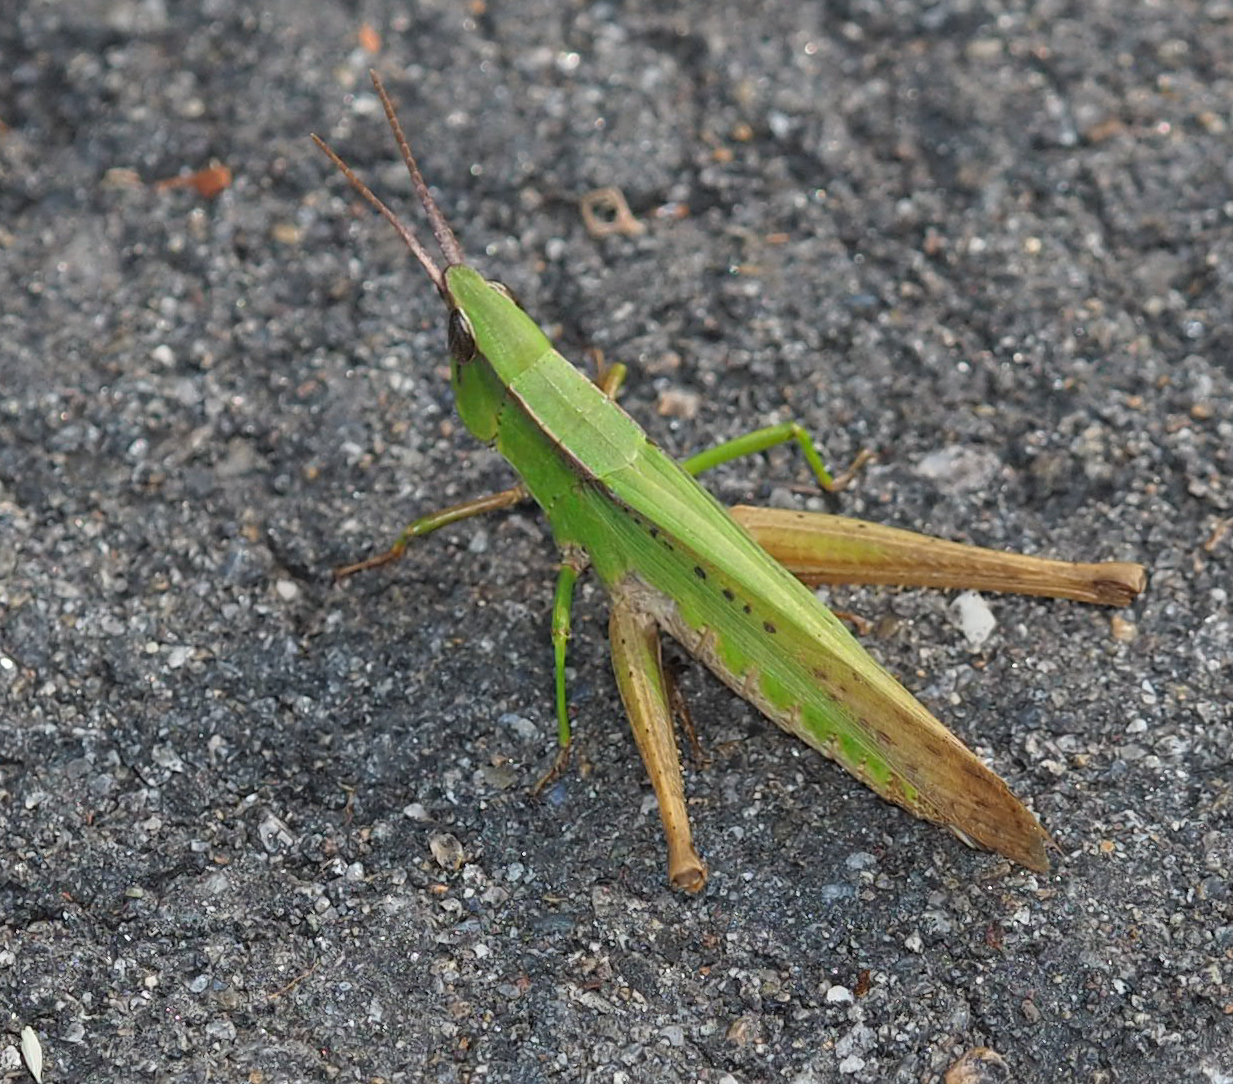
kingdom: Animalia
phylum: Arthropoda
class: Insecta
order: Orthoptera
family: Acrididae
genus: Metaleptea
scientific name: Metaleptea brevicornis
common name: Clipped-wing grasshopper
